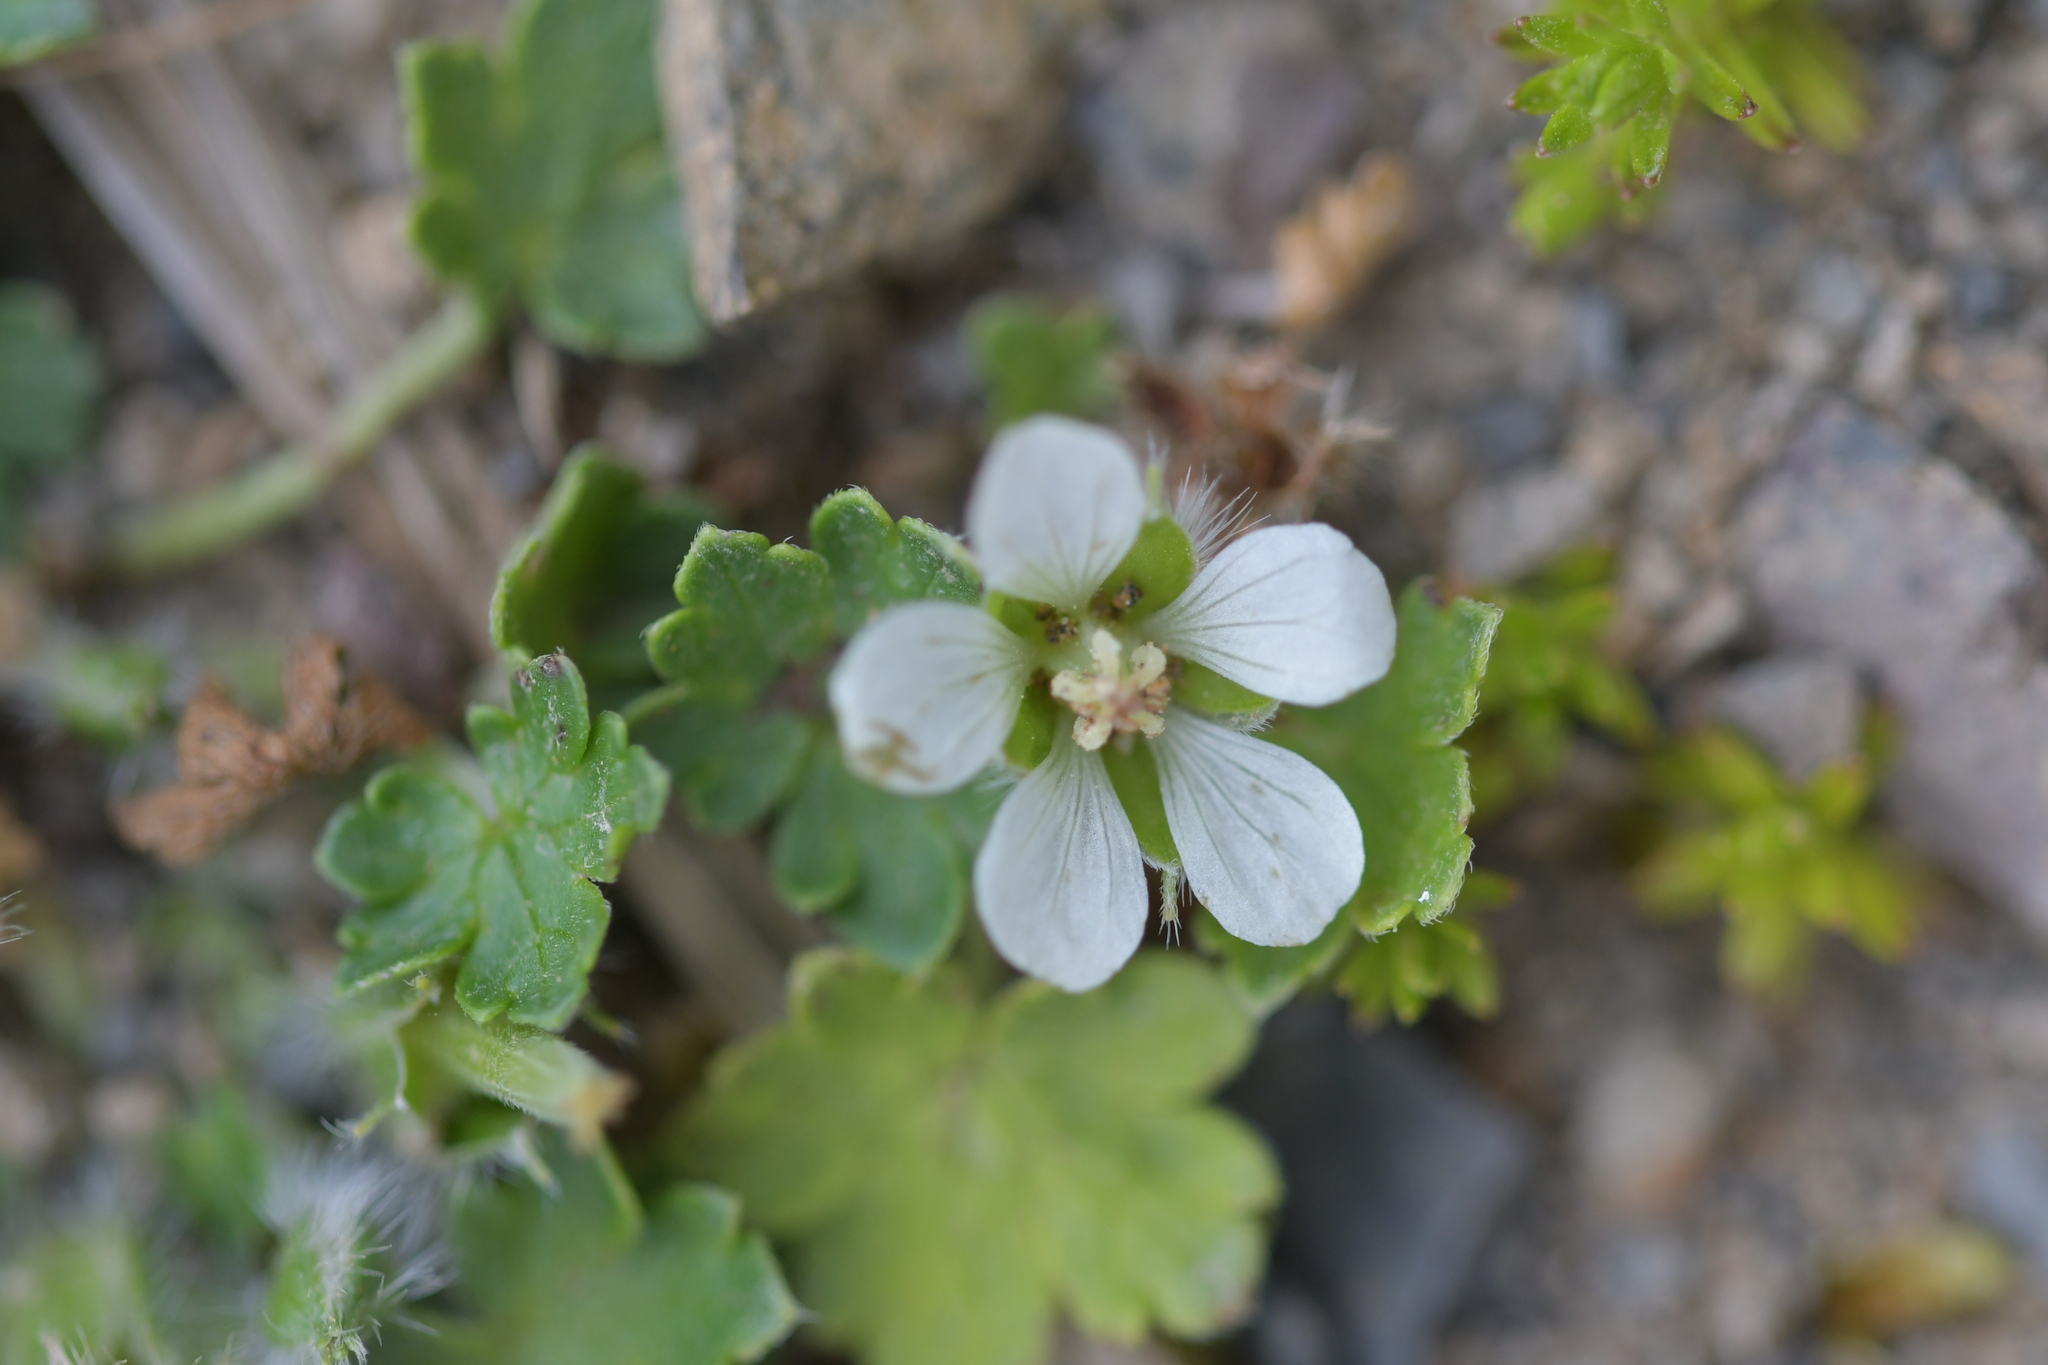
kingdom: Plantae
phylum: Tracheophyta
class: Magnoliopsida
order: Geraniales
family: Geraniaceae
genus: Geranium
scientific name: Geranium brevicaule
